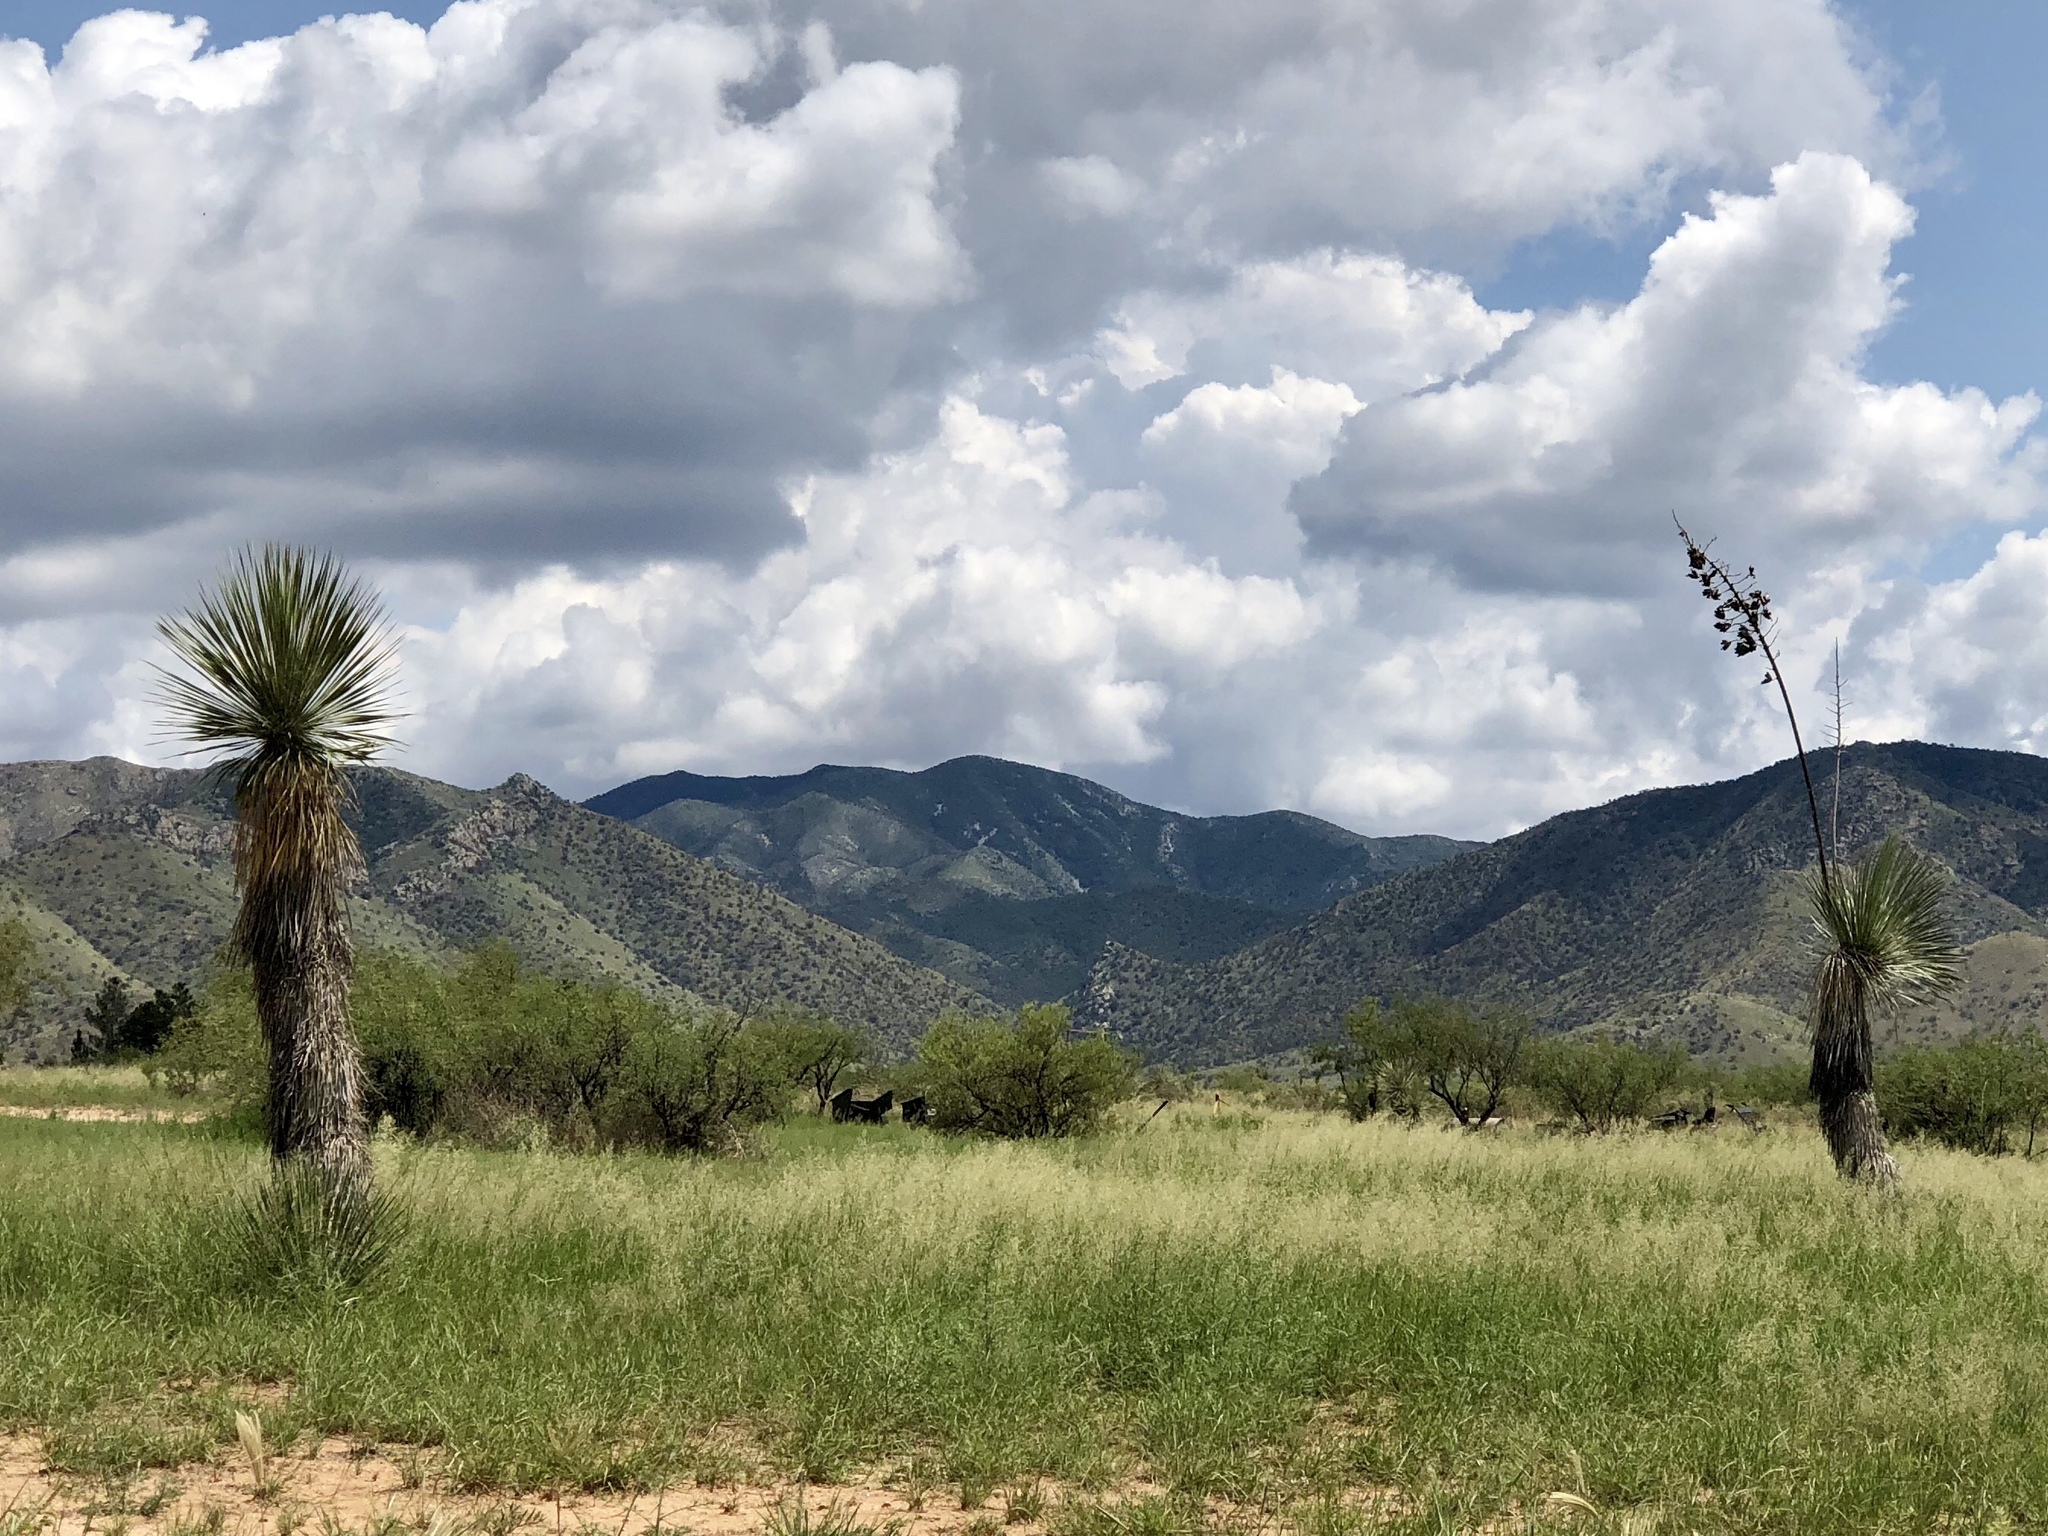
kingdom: Plantae
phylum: Tracheophyta
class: Liliopsida
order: Asparagales
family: Asparagaceae
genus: Yucca
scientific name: Yucca elata
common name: Palmella
